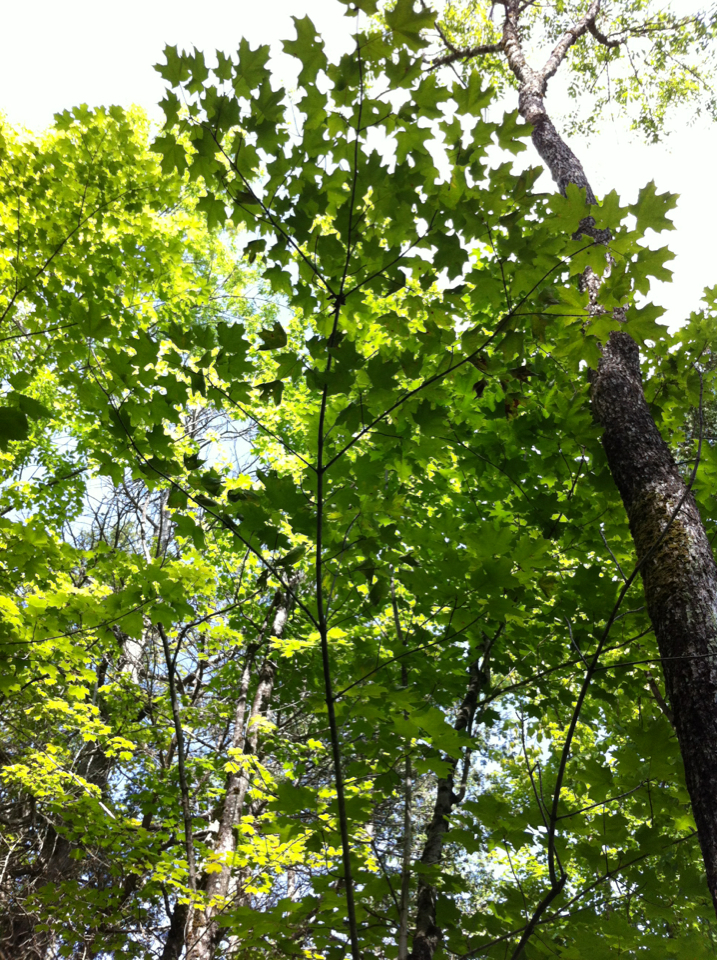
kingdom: Plantae
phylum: Tracheophyta
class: Magnoliopsida
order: Sapindales
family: Sapindaceae
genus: Acer
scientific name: Acer saccharum
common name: Sugar maple
